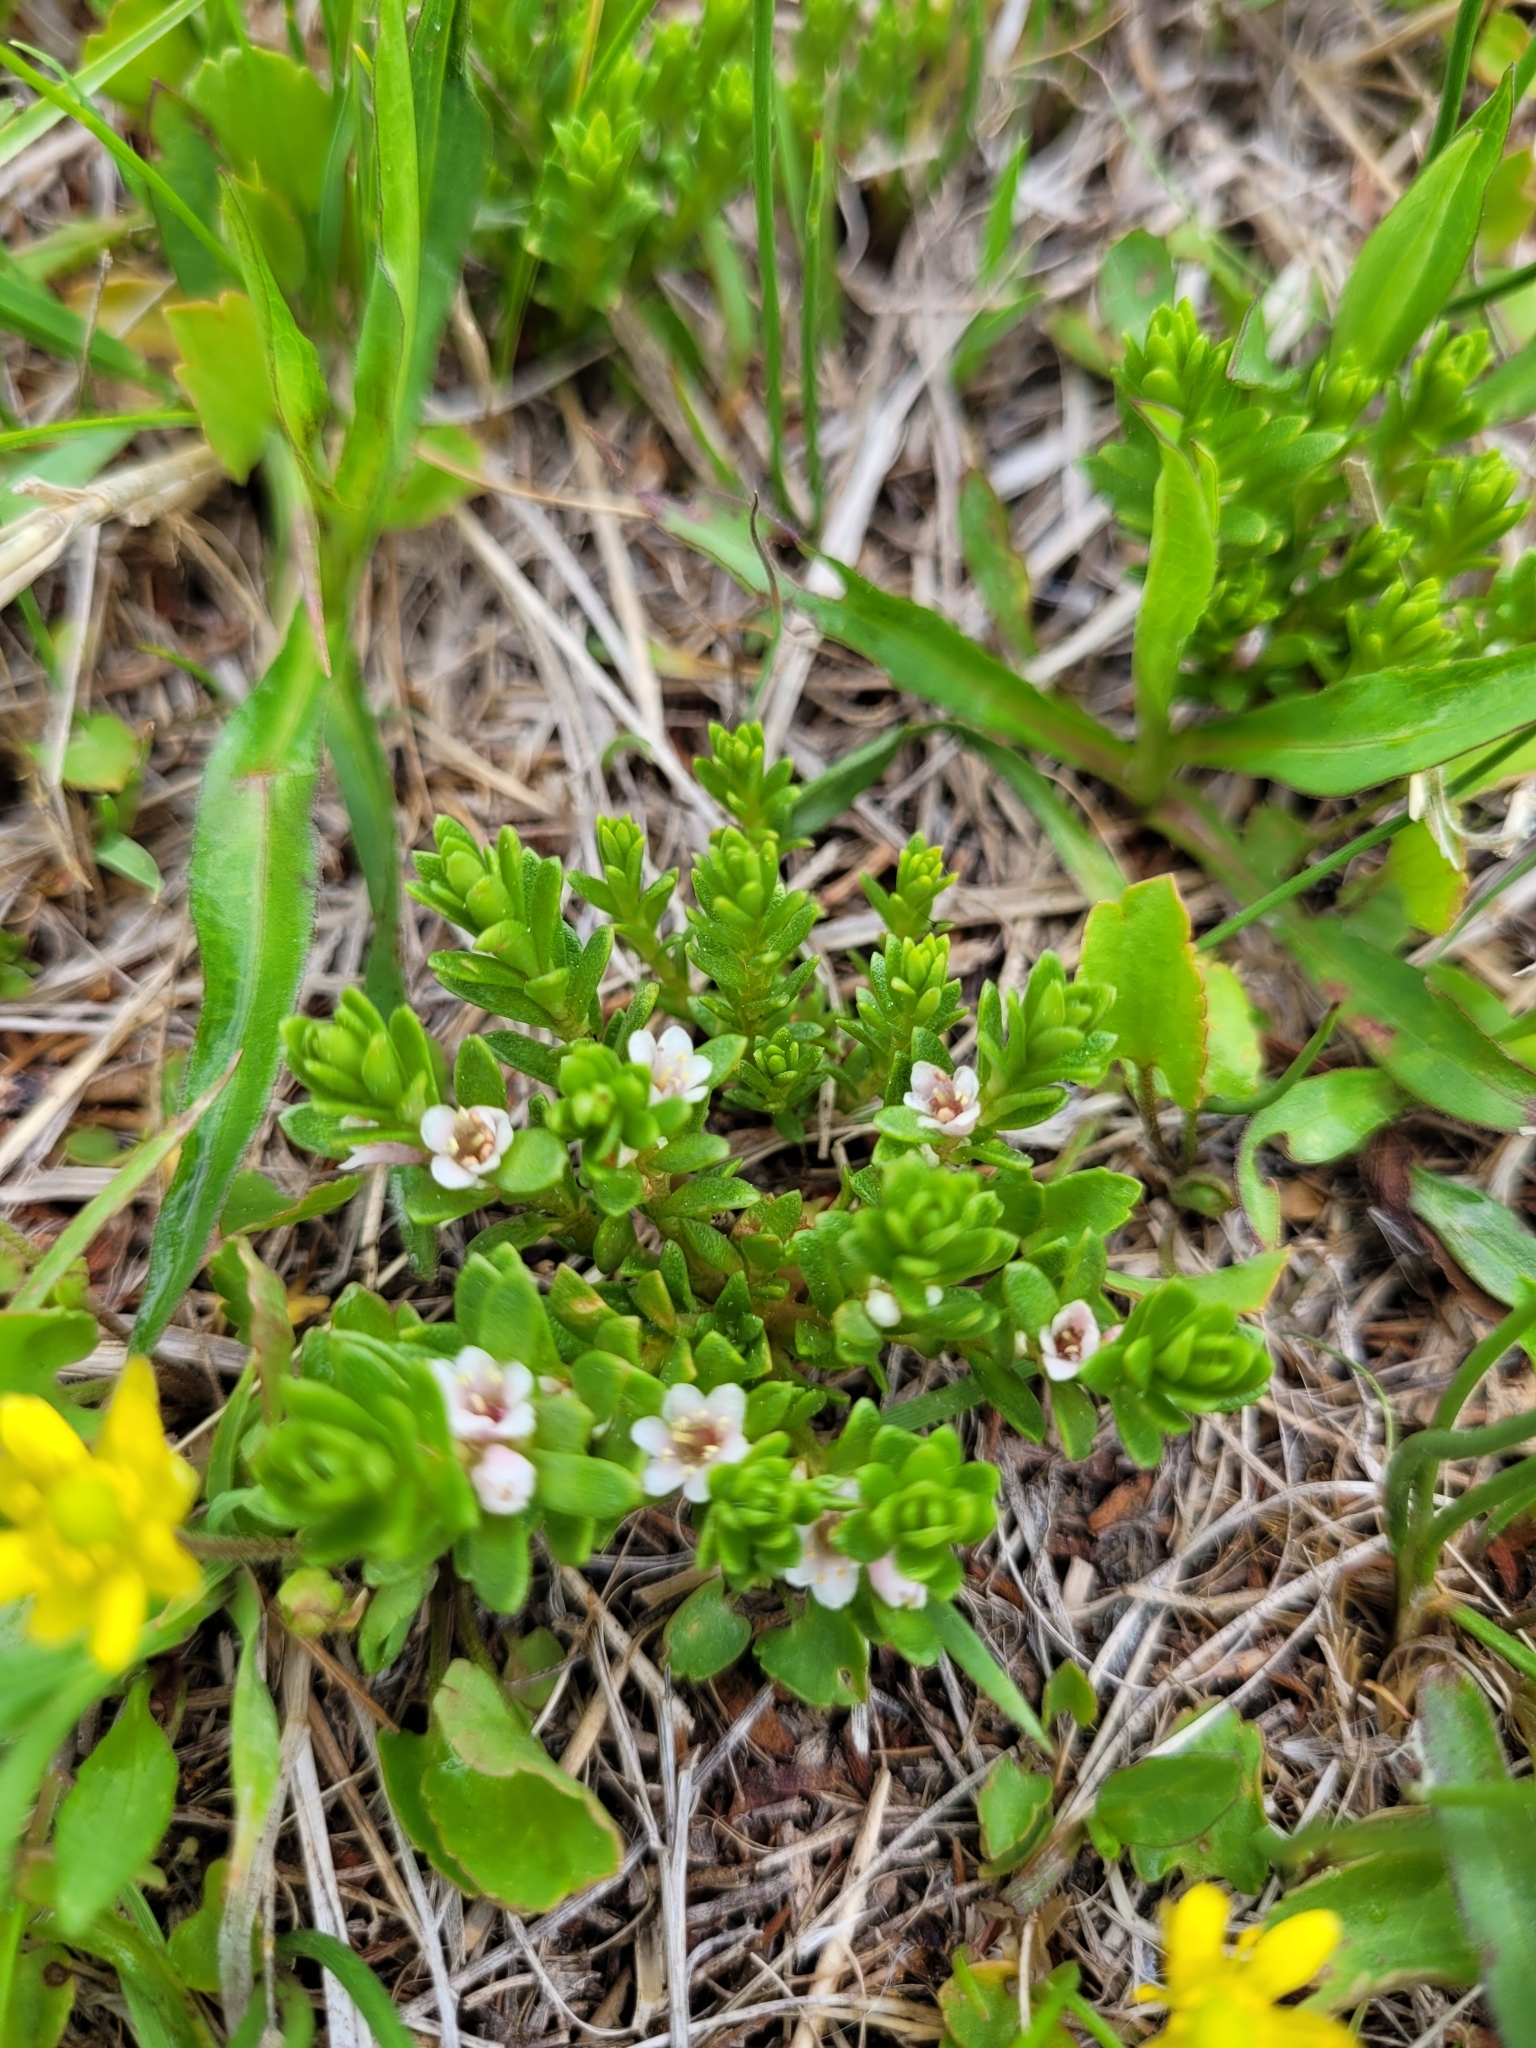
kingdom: Plantae
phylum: Tracheophyta
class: Magnoliopsida
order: Ericales
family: Primulaceae
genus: Lysimachia
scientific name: Lysimachia maritima
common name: Sea milkwort
